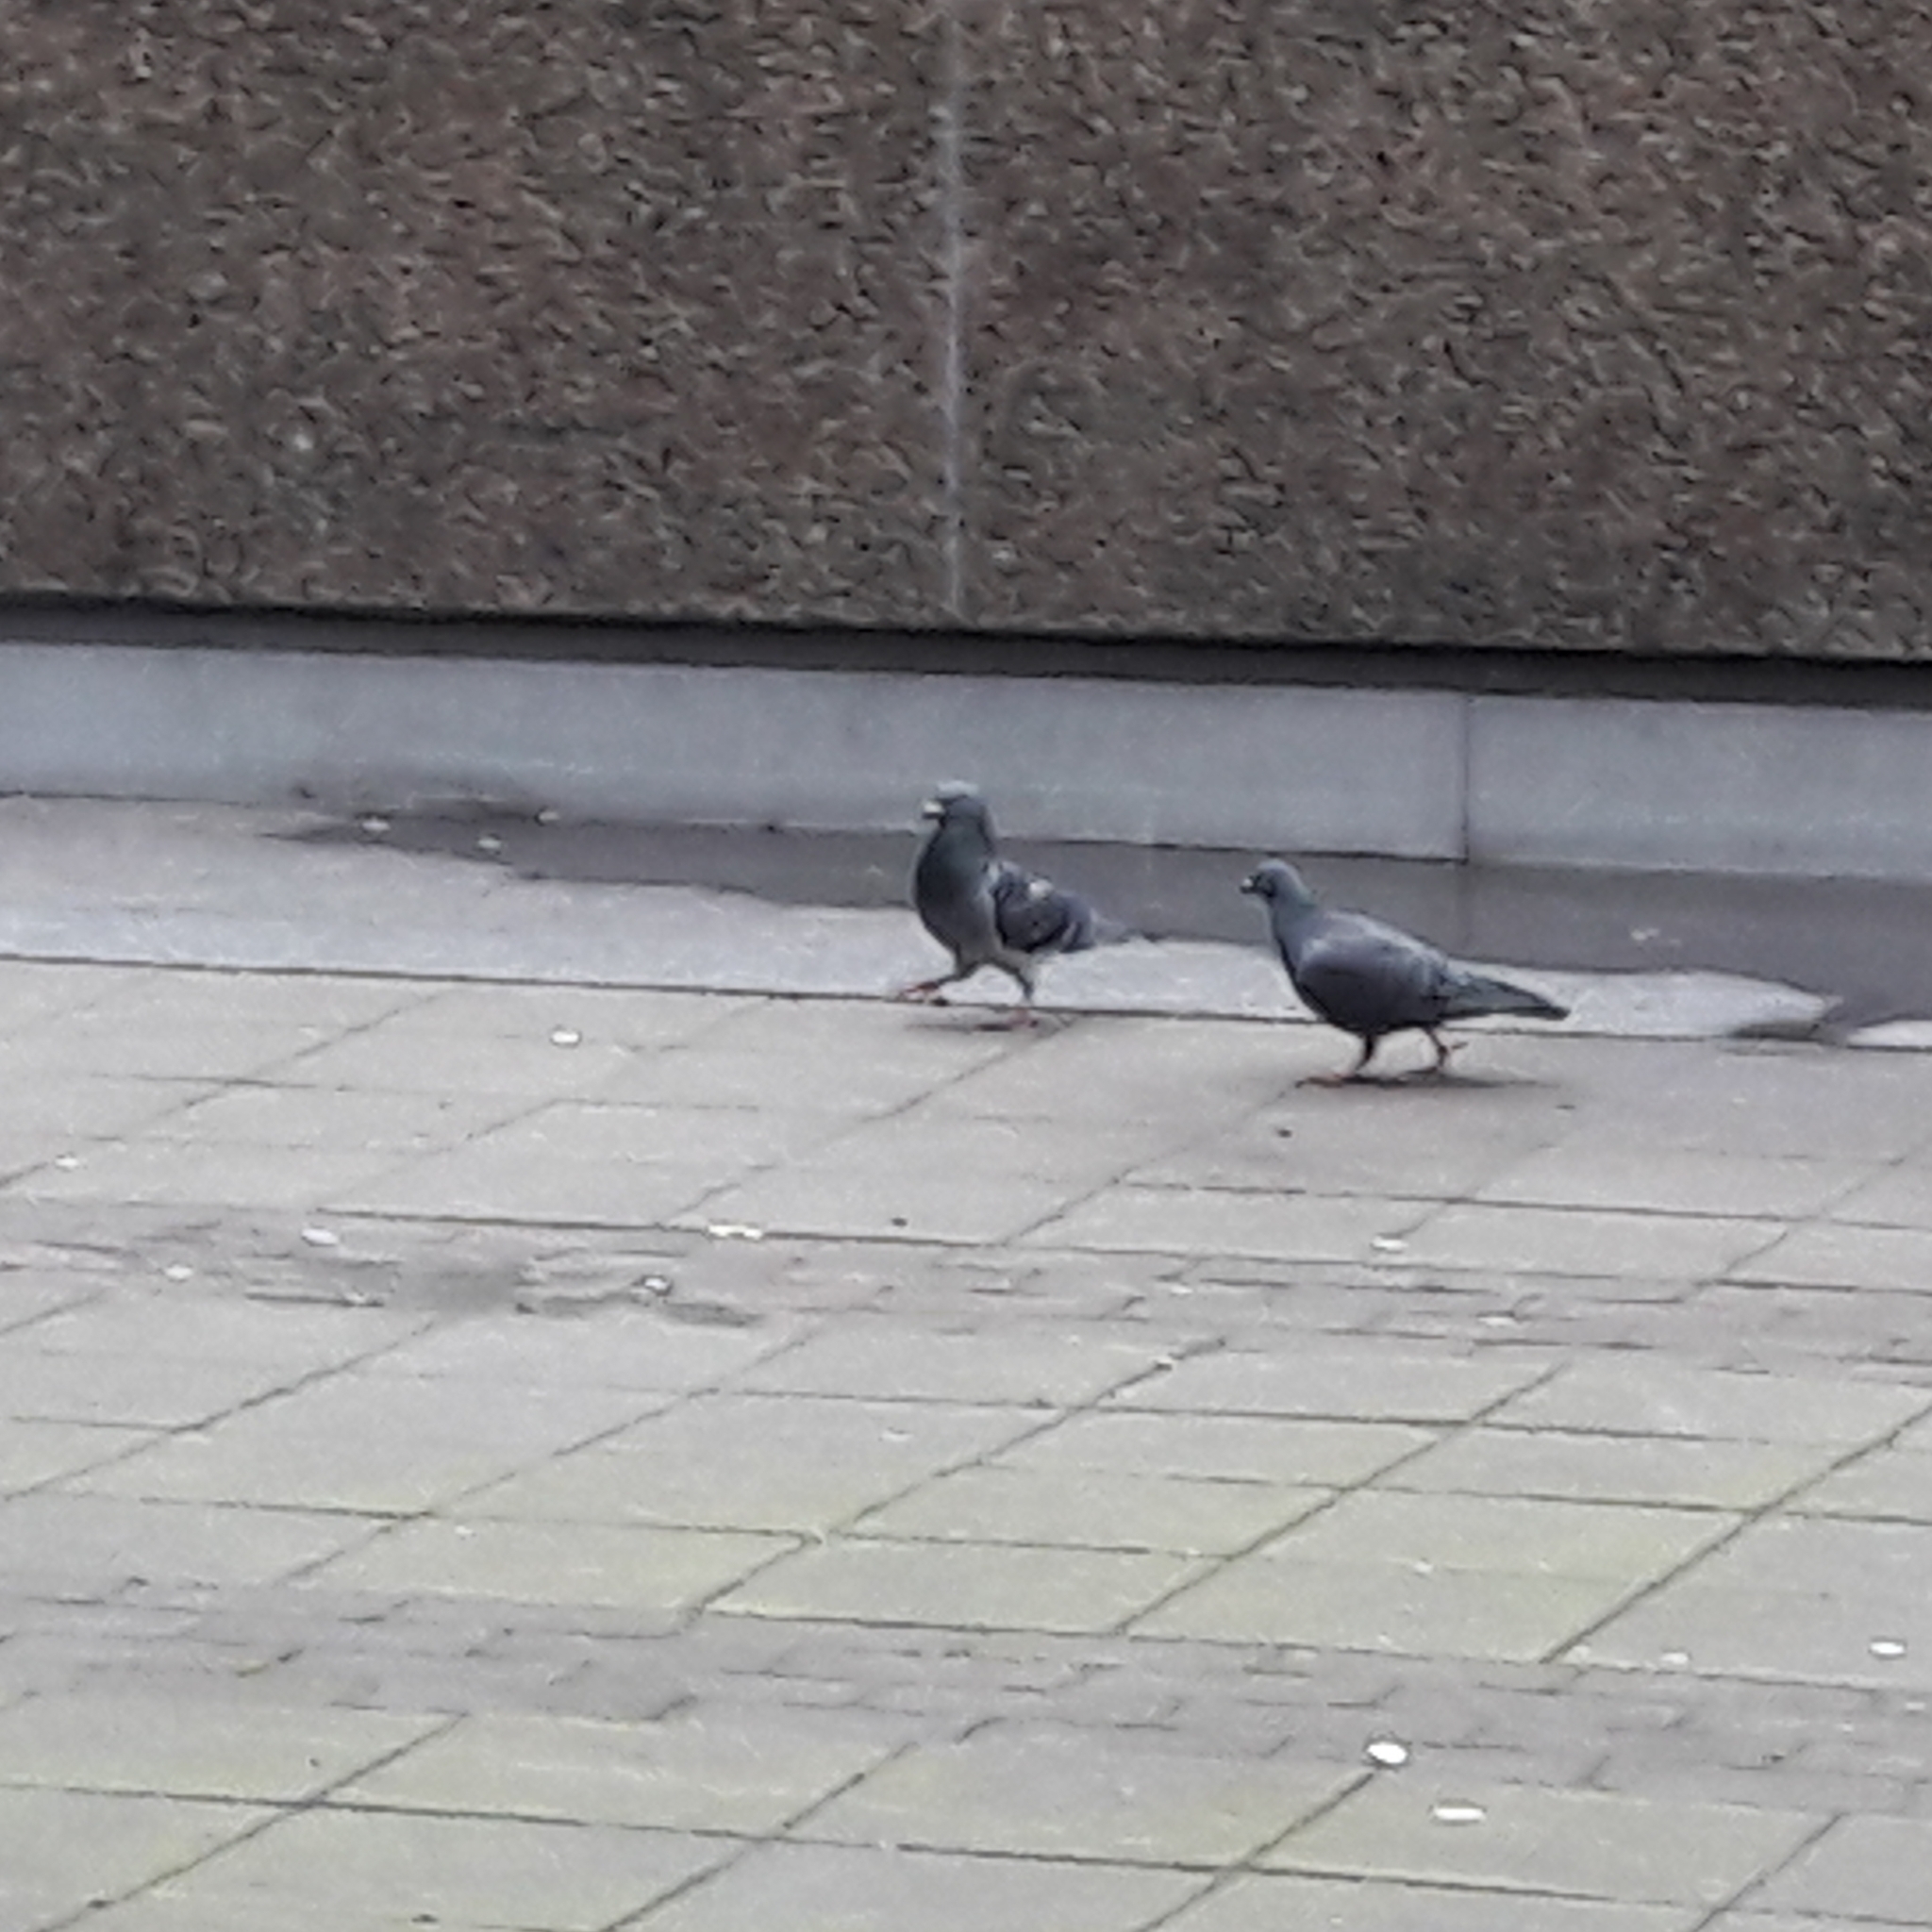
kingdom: Animalia
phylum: Chordata
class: Aves
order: Columbiformes
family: Columbidae
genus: Columba
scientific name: Columba livia
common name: Rock pigeon
